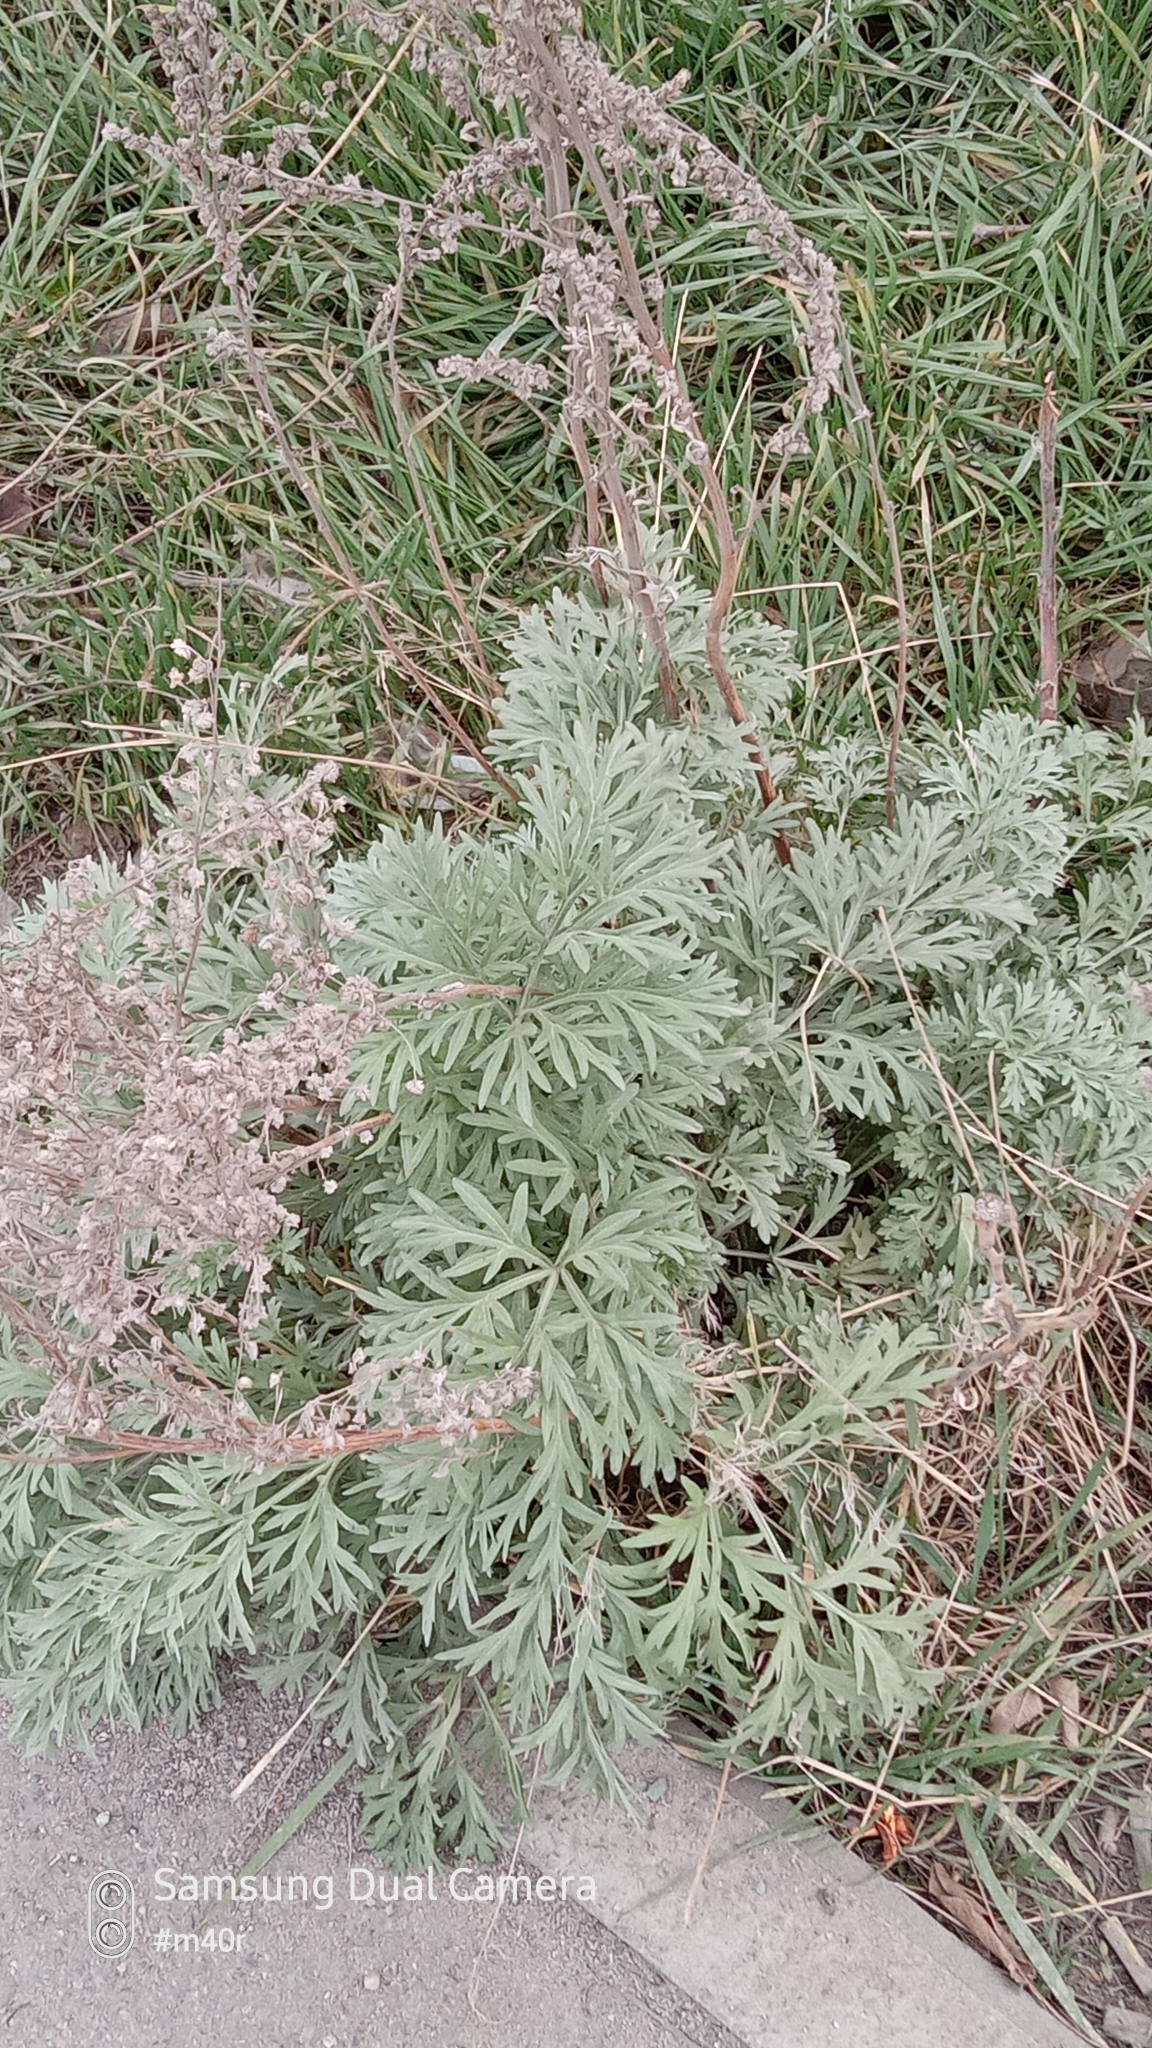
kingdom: Plantae
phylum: Tracheophyta
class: Magnoliopsida
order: Asterales
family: Asteraceae
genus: Artemisia
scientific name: Artemisia absinthium
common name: Wormwood
